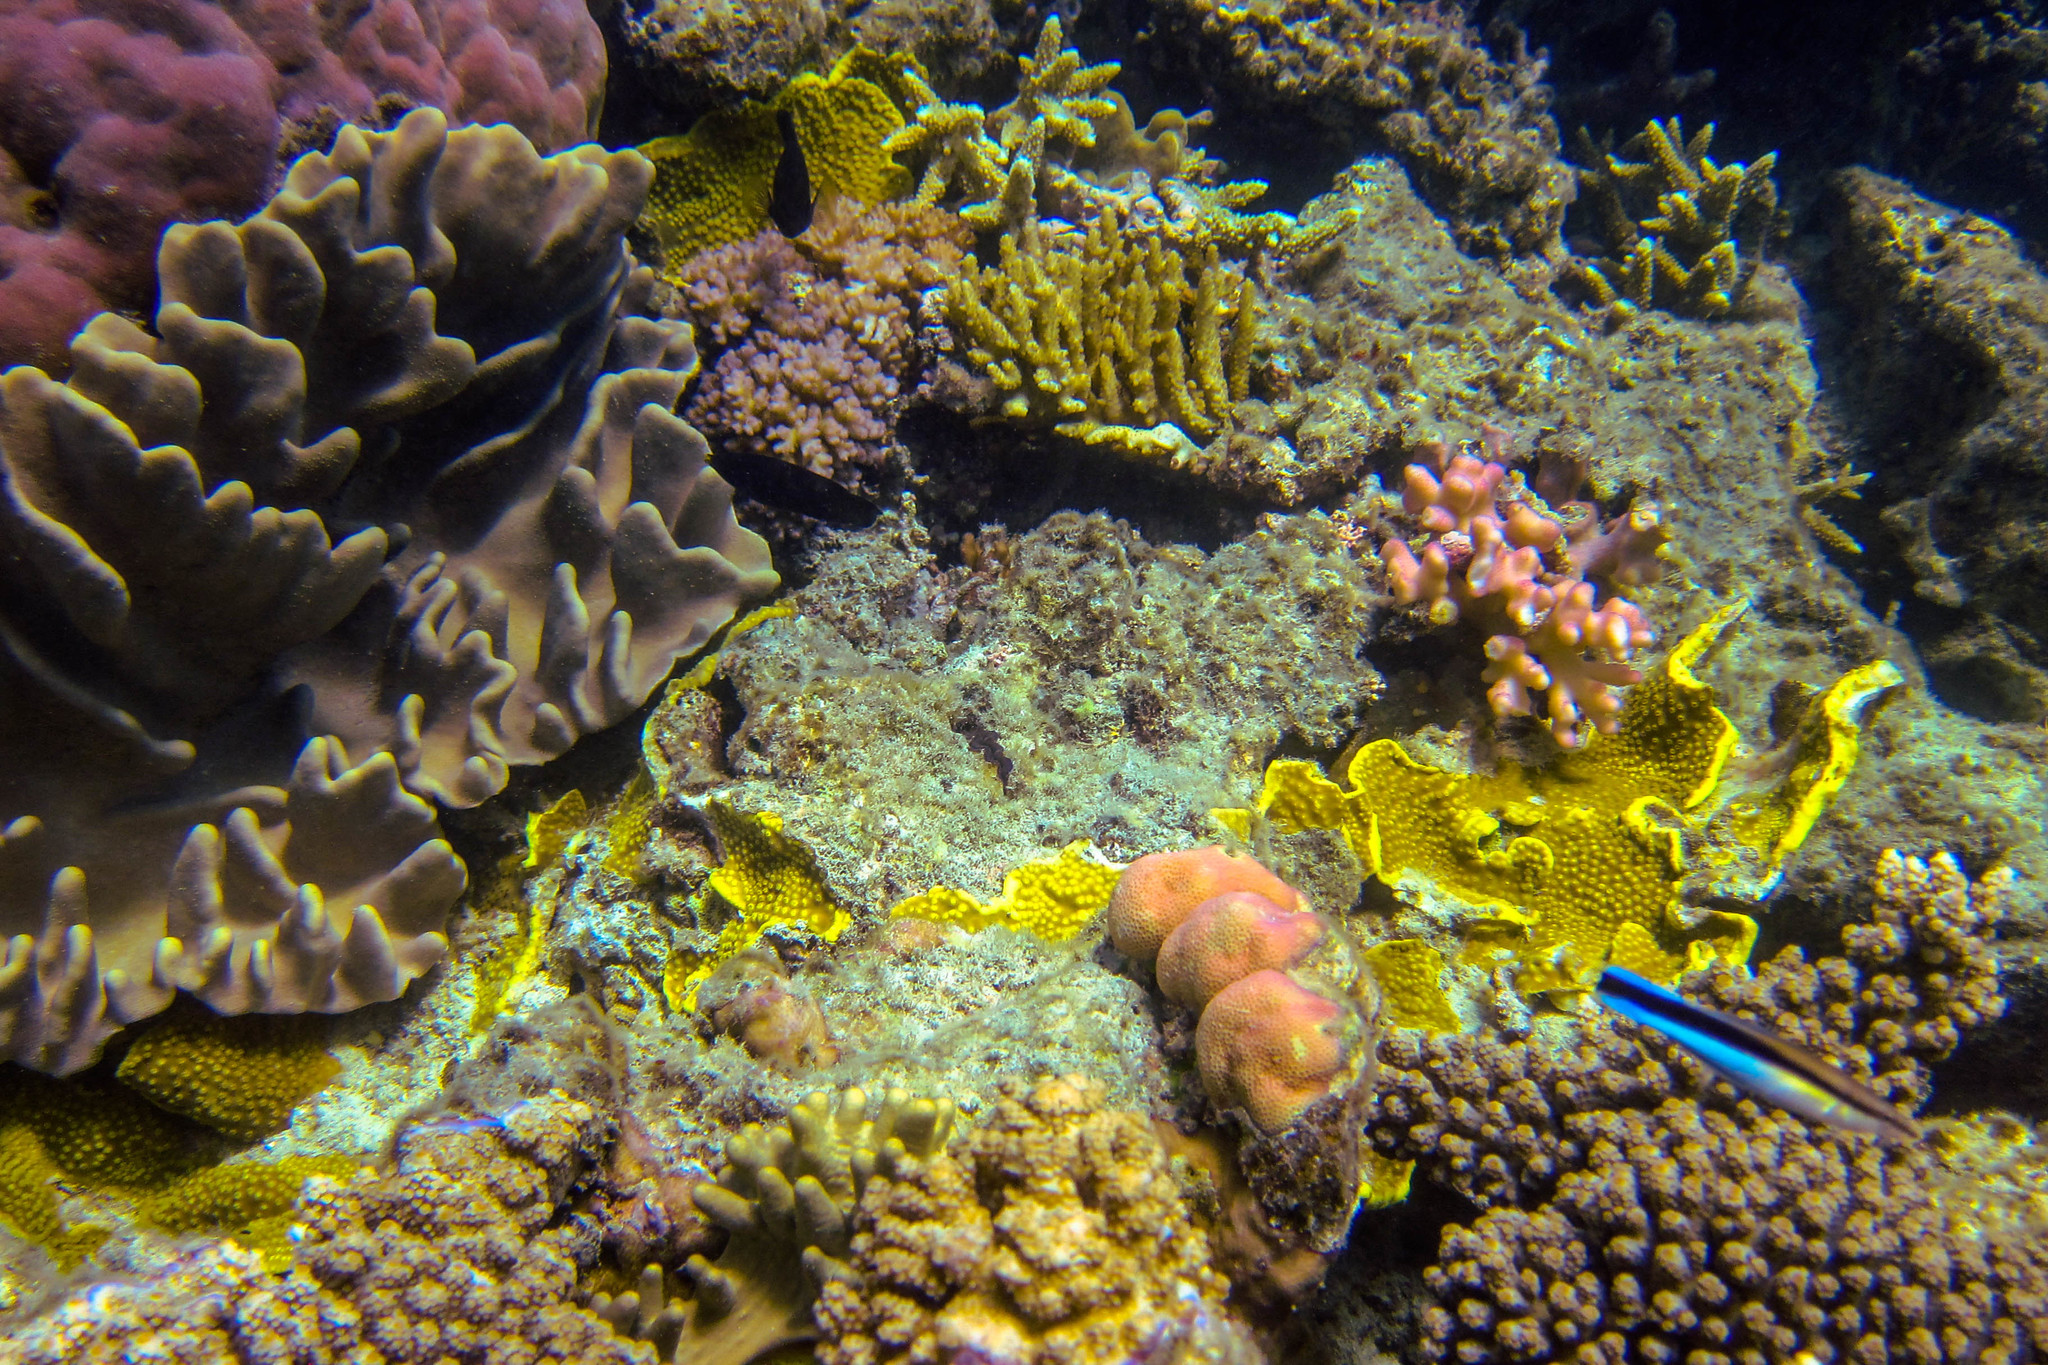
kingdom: Animalia
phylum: Chordata
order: Perciformes
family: Labridae
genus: Labroides
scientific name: Labroides dimidiatus
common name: Blue diesel wrasse
